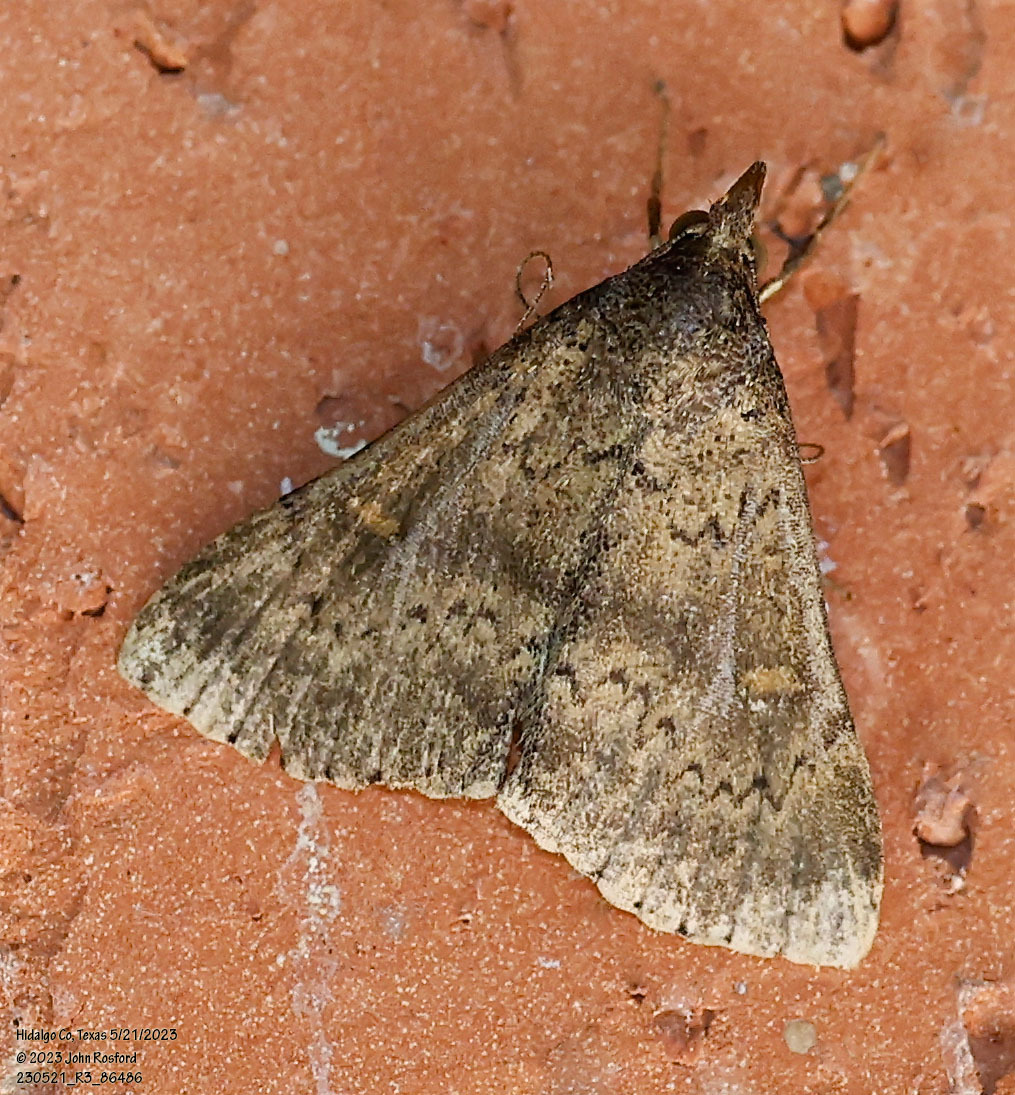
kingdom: Animalia
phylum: Arthropoda
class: Insecta
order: Lepidoptera
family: Erebidae
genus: Hypenula
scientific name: Hypenula cacuminalis
